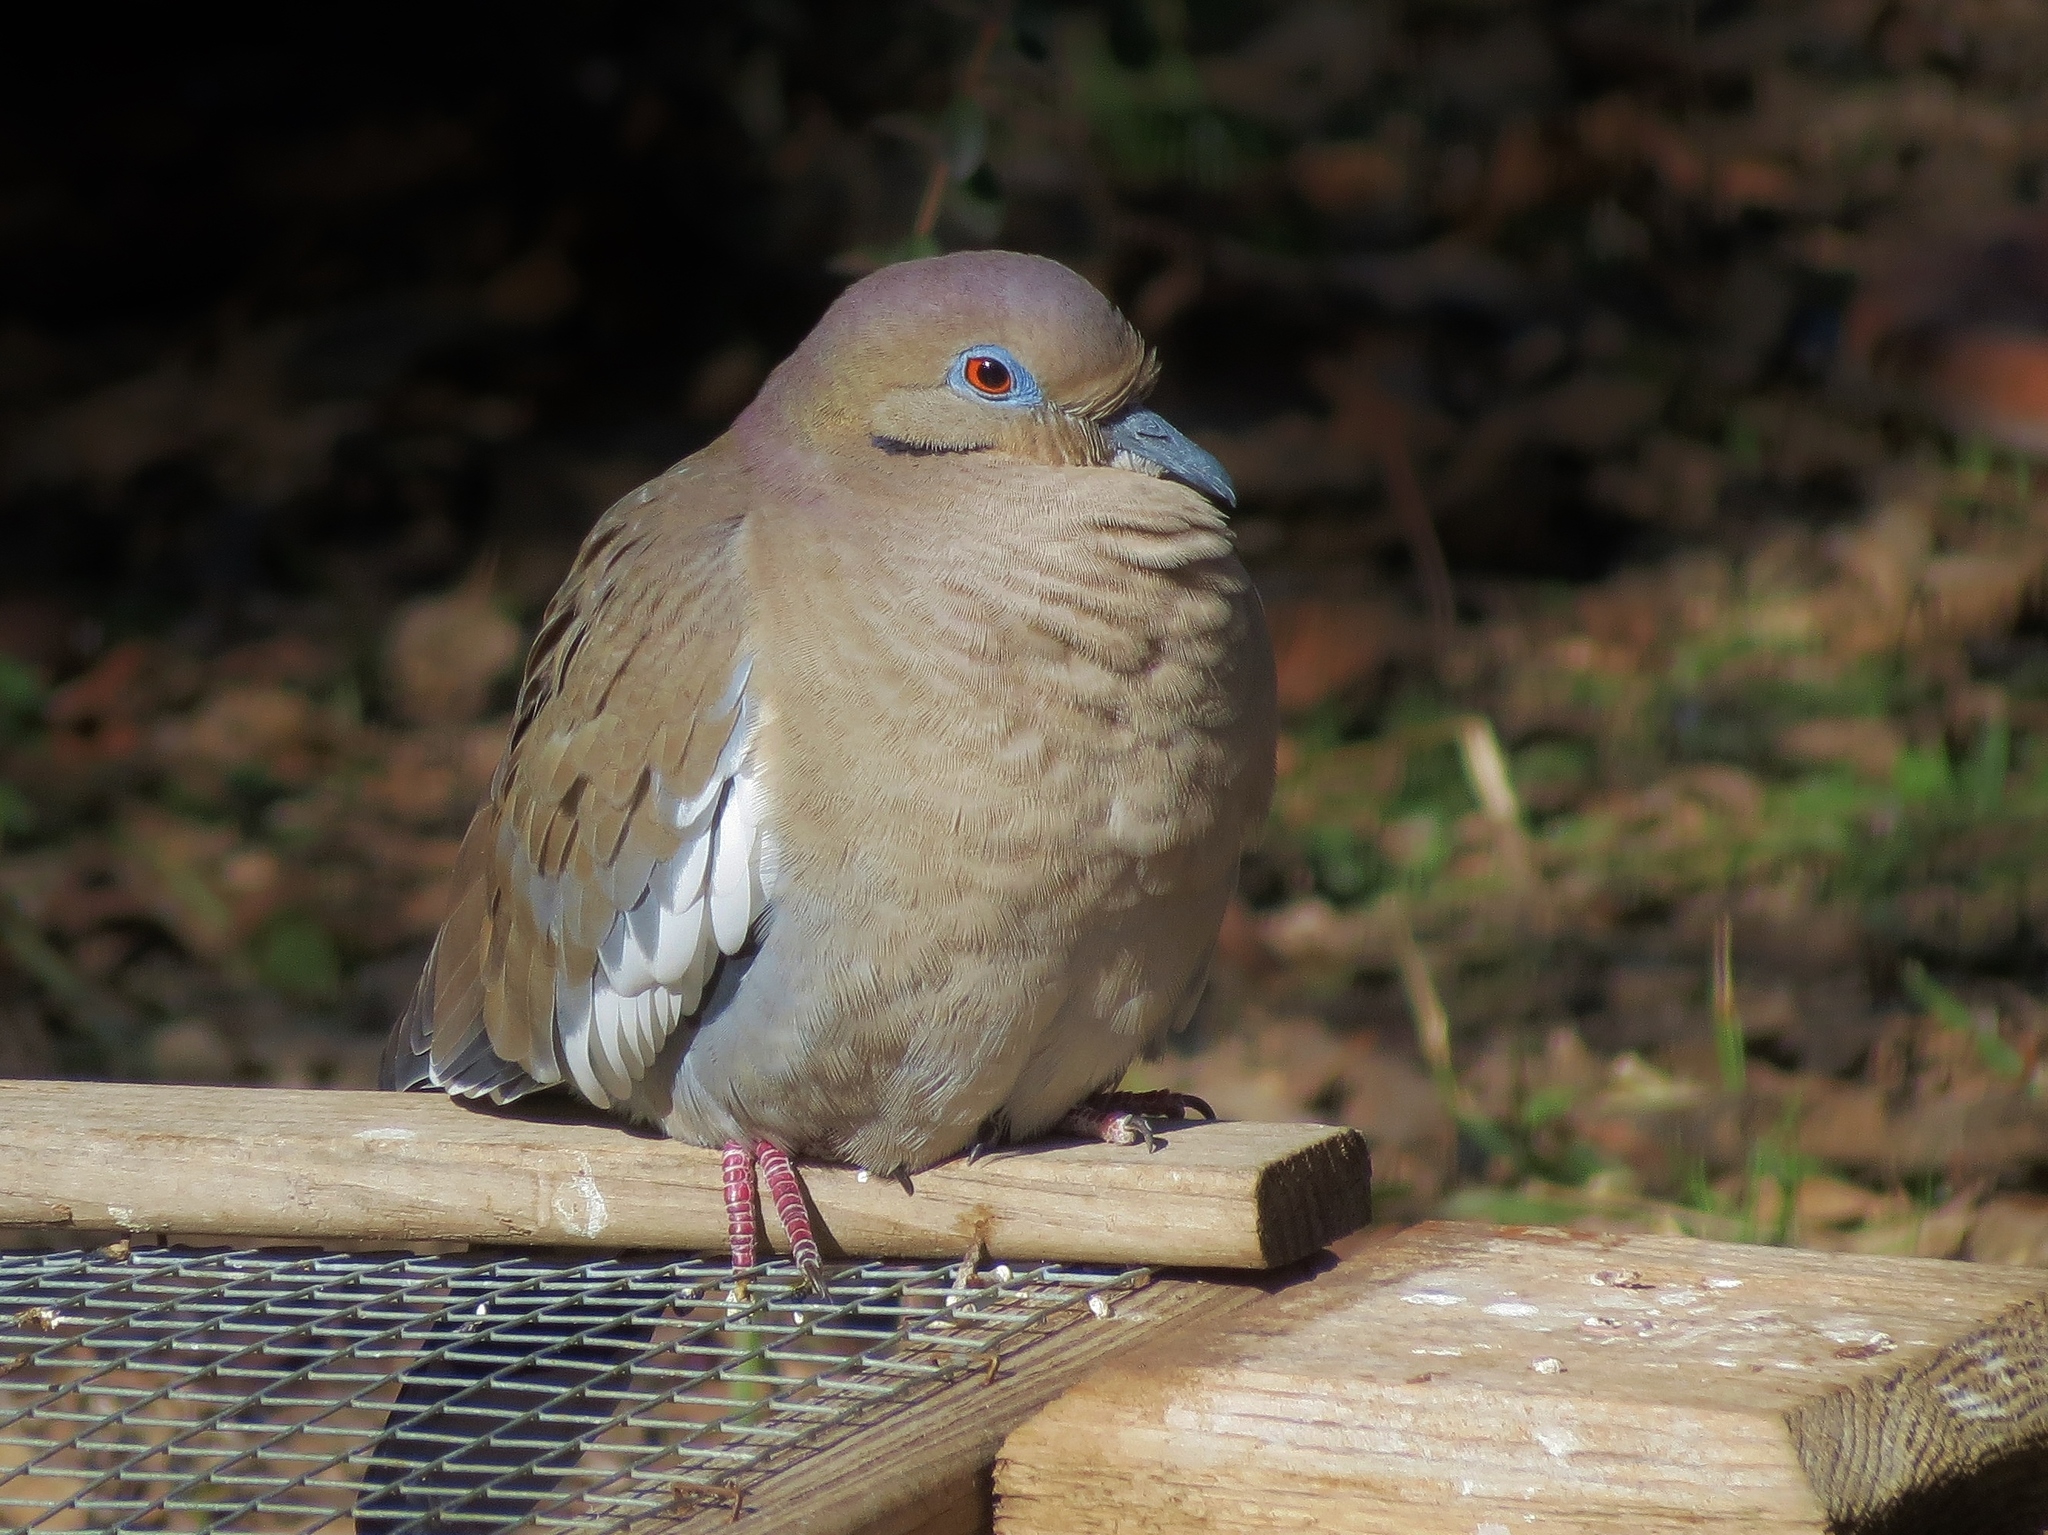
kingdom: Animalia
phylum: Chordata
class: Aves
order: Columbiformes
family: Columbidae
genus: Zenaida
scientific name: Zenaida asiatica
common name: White-winged dove
